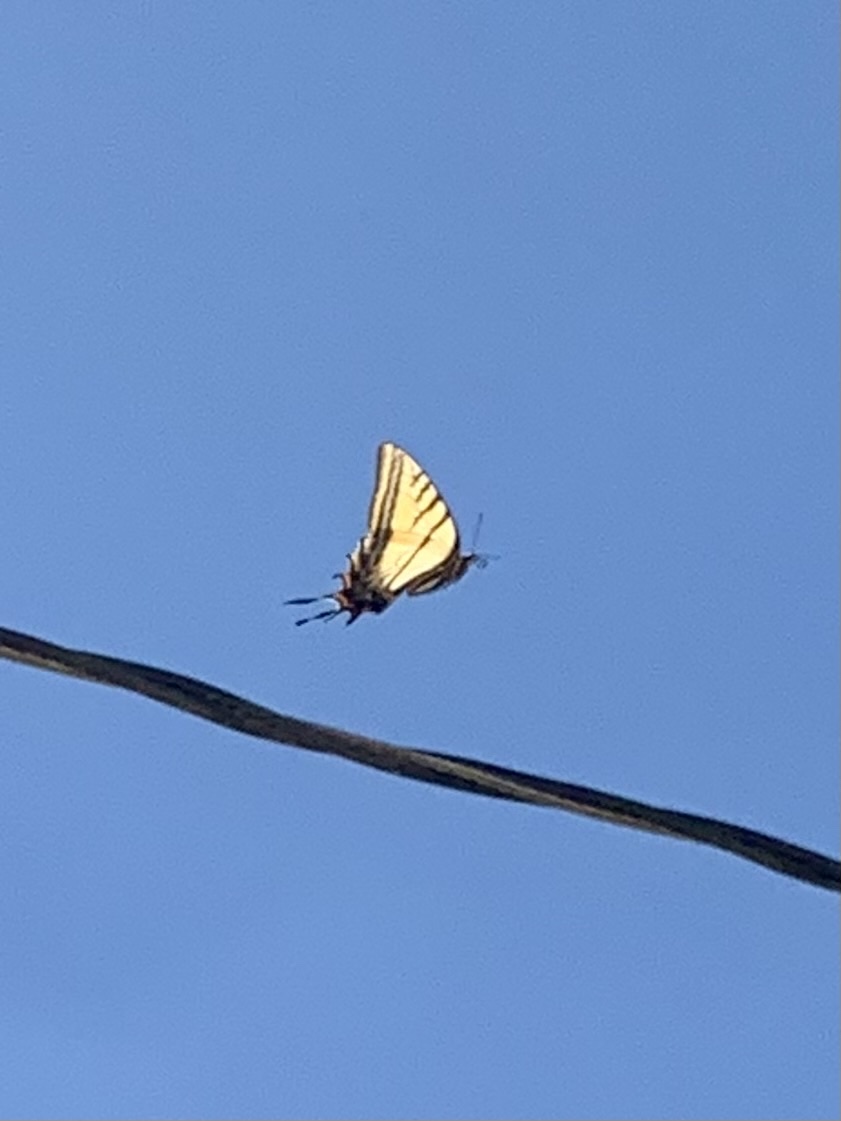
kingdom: Animalia
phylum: Arthropoda
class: Insecta
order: Lepidoptera
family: Papilionidae
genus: Papilio
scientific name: Papilio multicaudata
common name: Two-tailed tiger swallowtail
